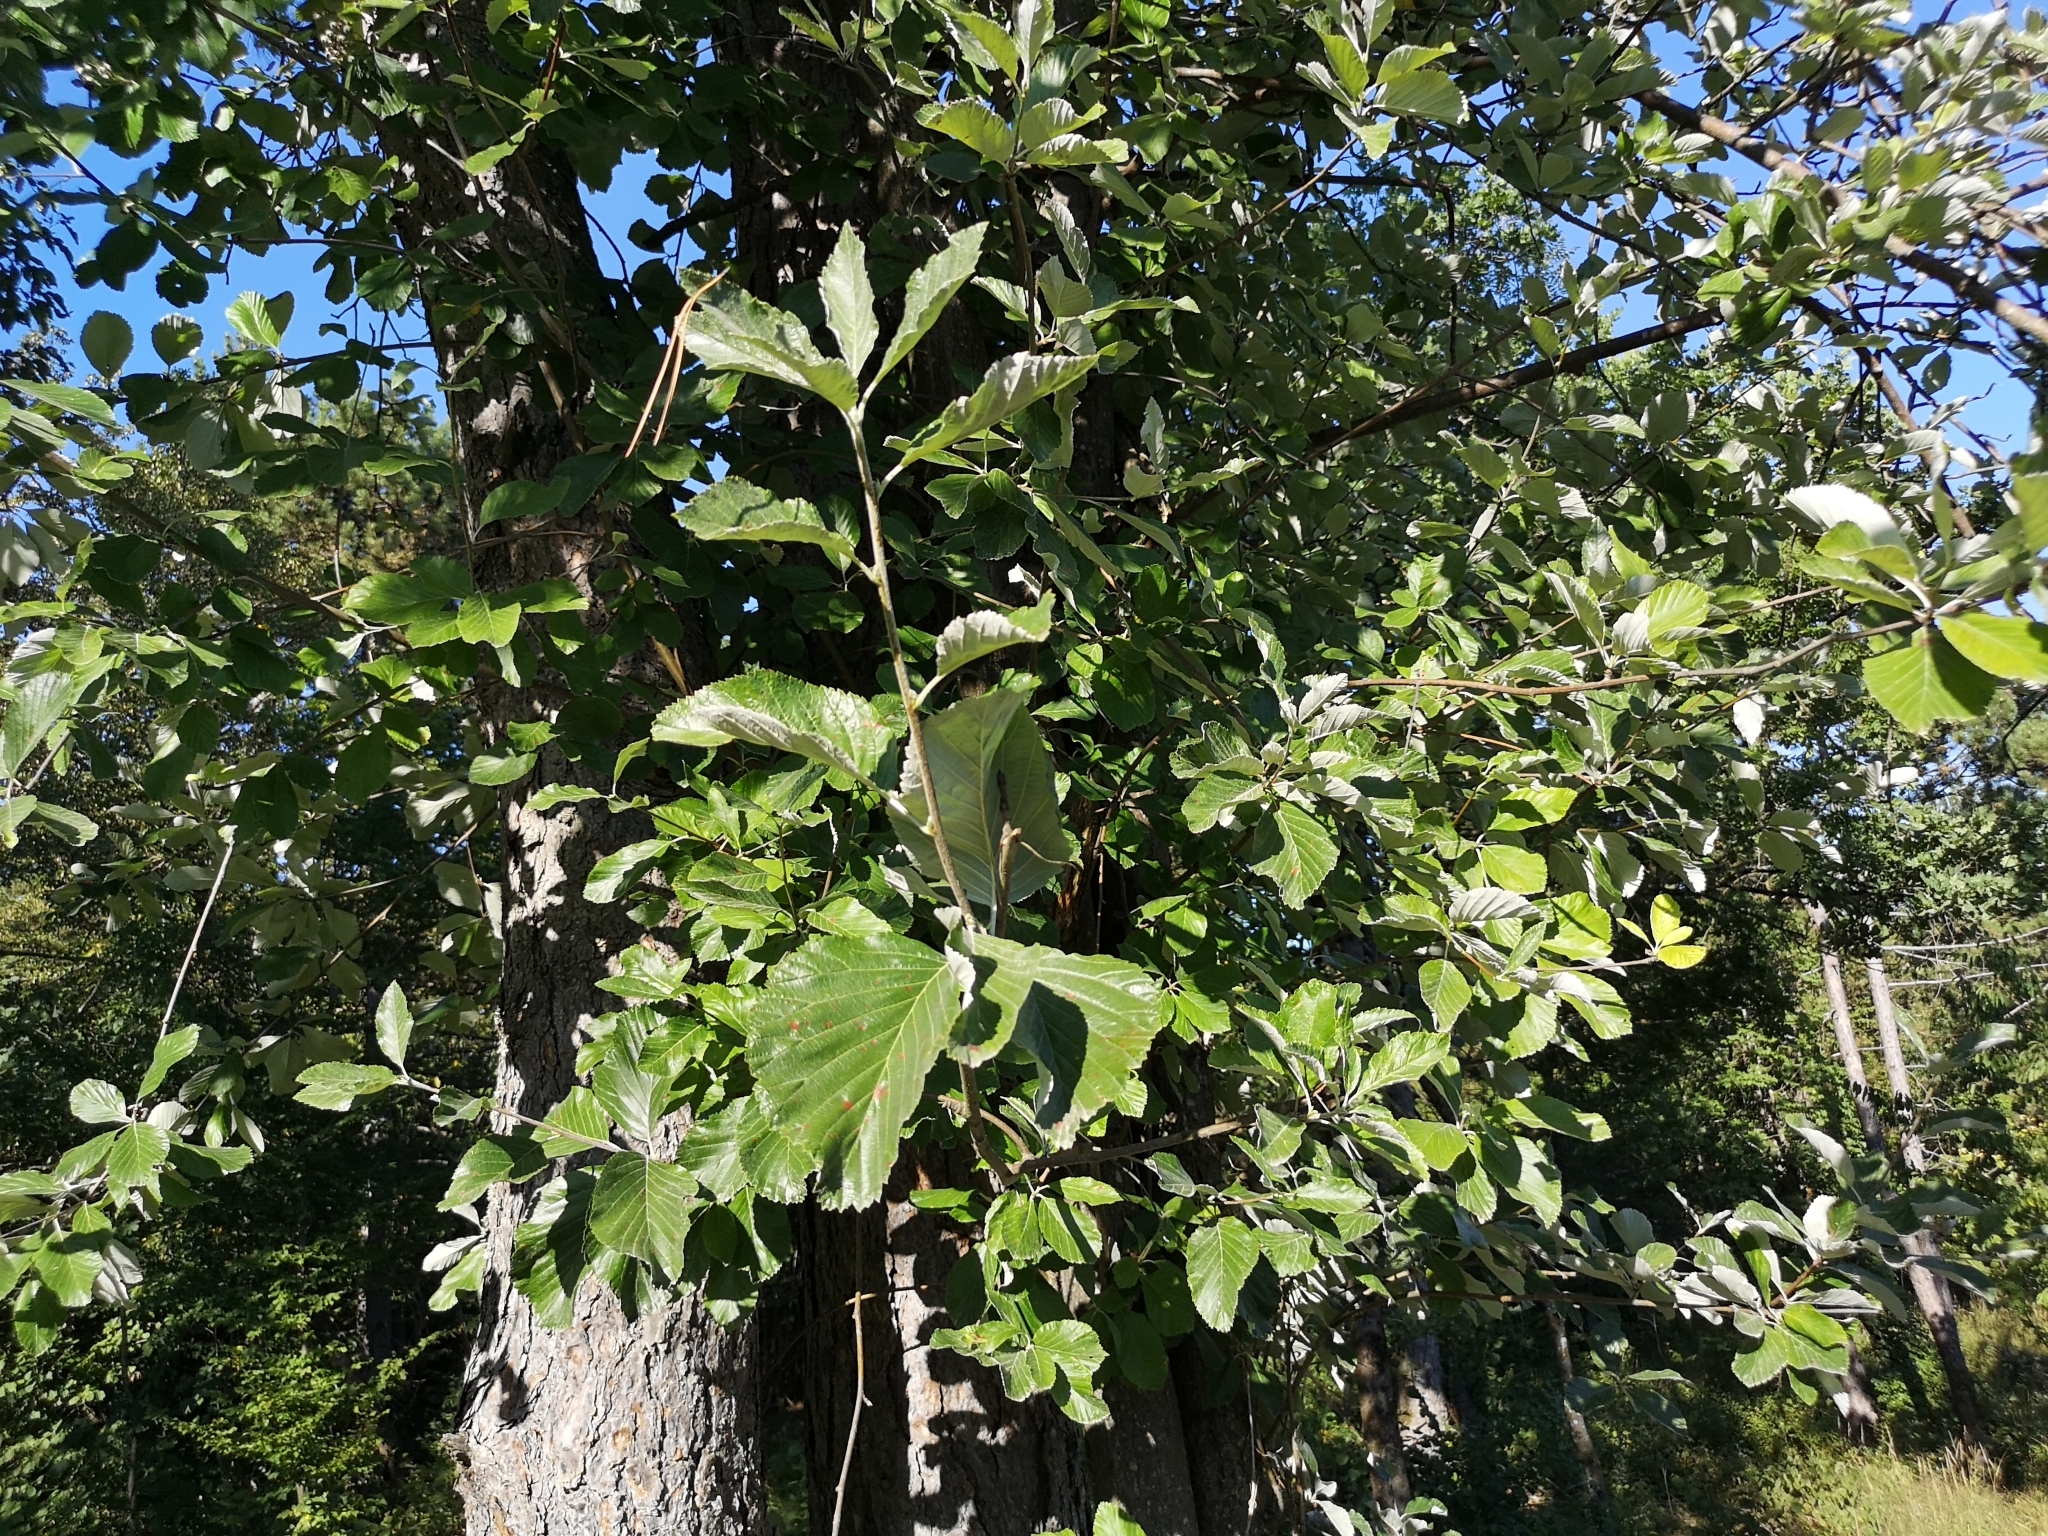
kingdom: Plantae
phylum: Tracheophyta
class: Magnoliopsida
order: Rosales
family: Rosaceae
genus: Aria
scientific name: Aria edulis
